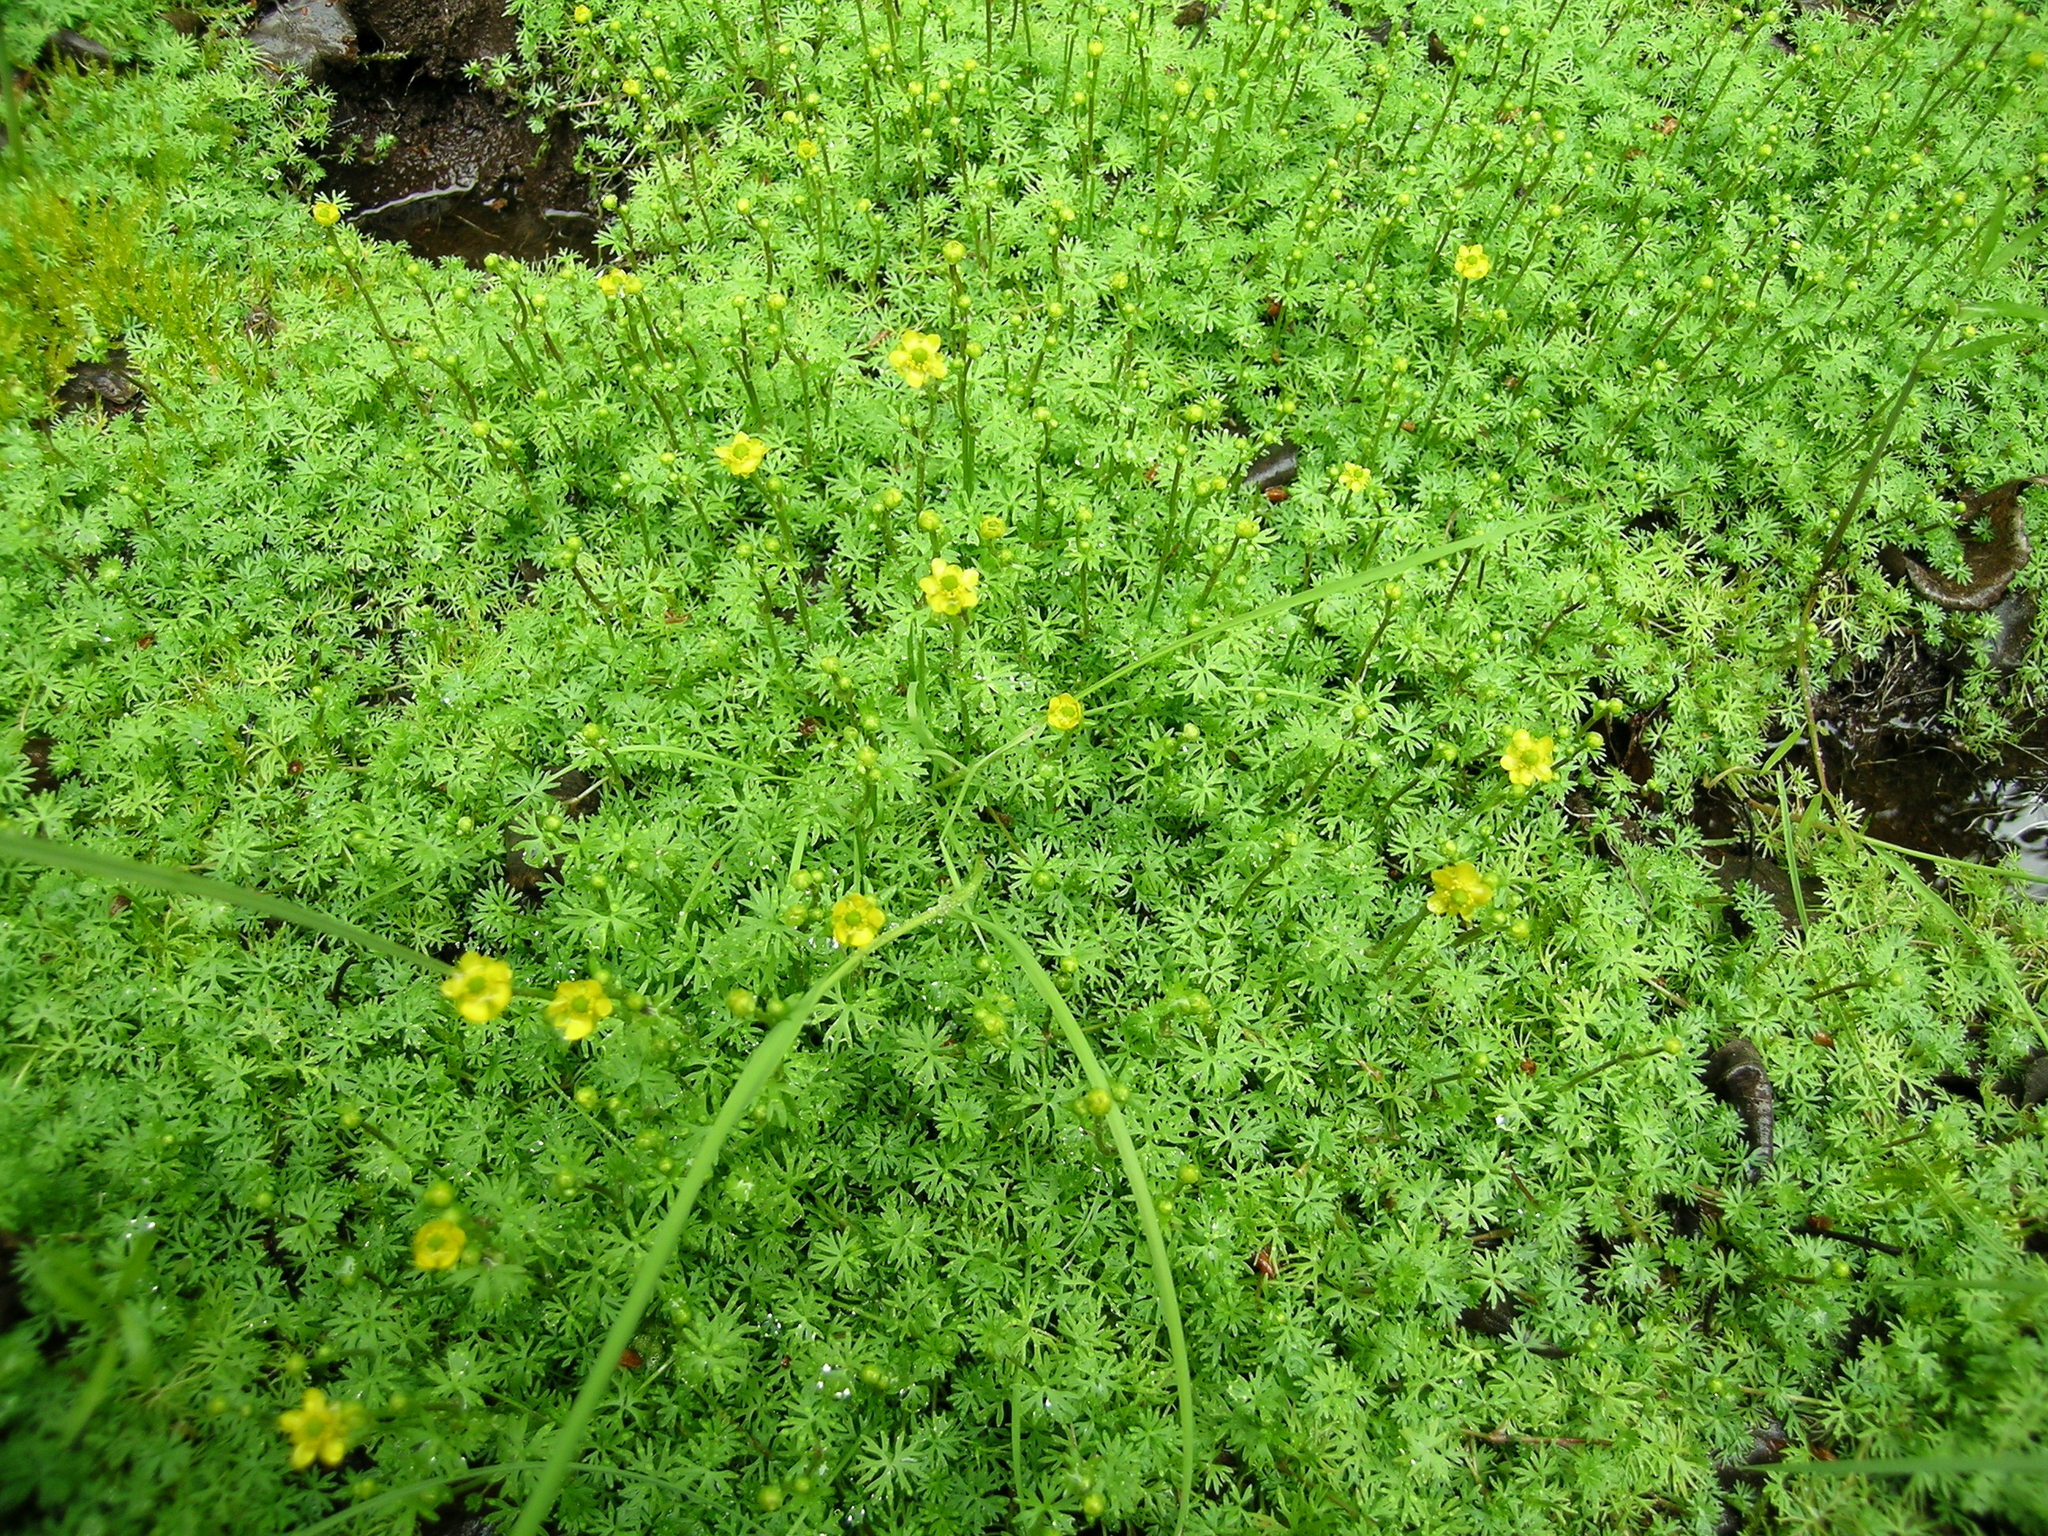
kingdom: Plantae
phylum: Tracheophyta
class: Magnoliopsida
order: Ranunculales
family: Ranunculaceae
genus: Ranunculus
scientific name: Ranunculus gmelinii
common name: Gmelin's buttercup
